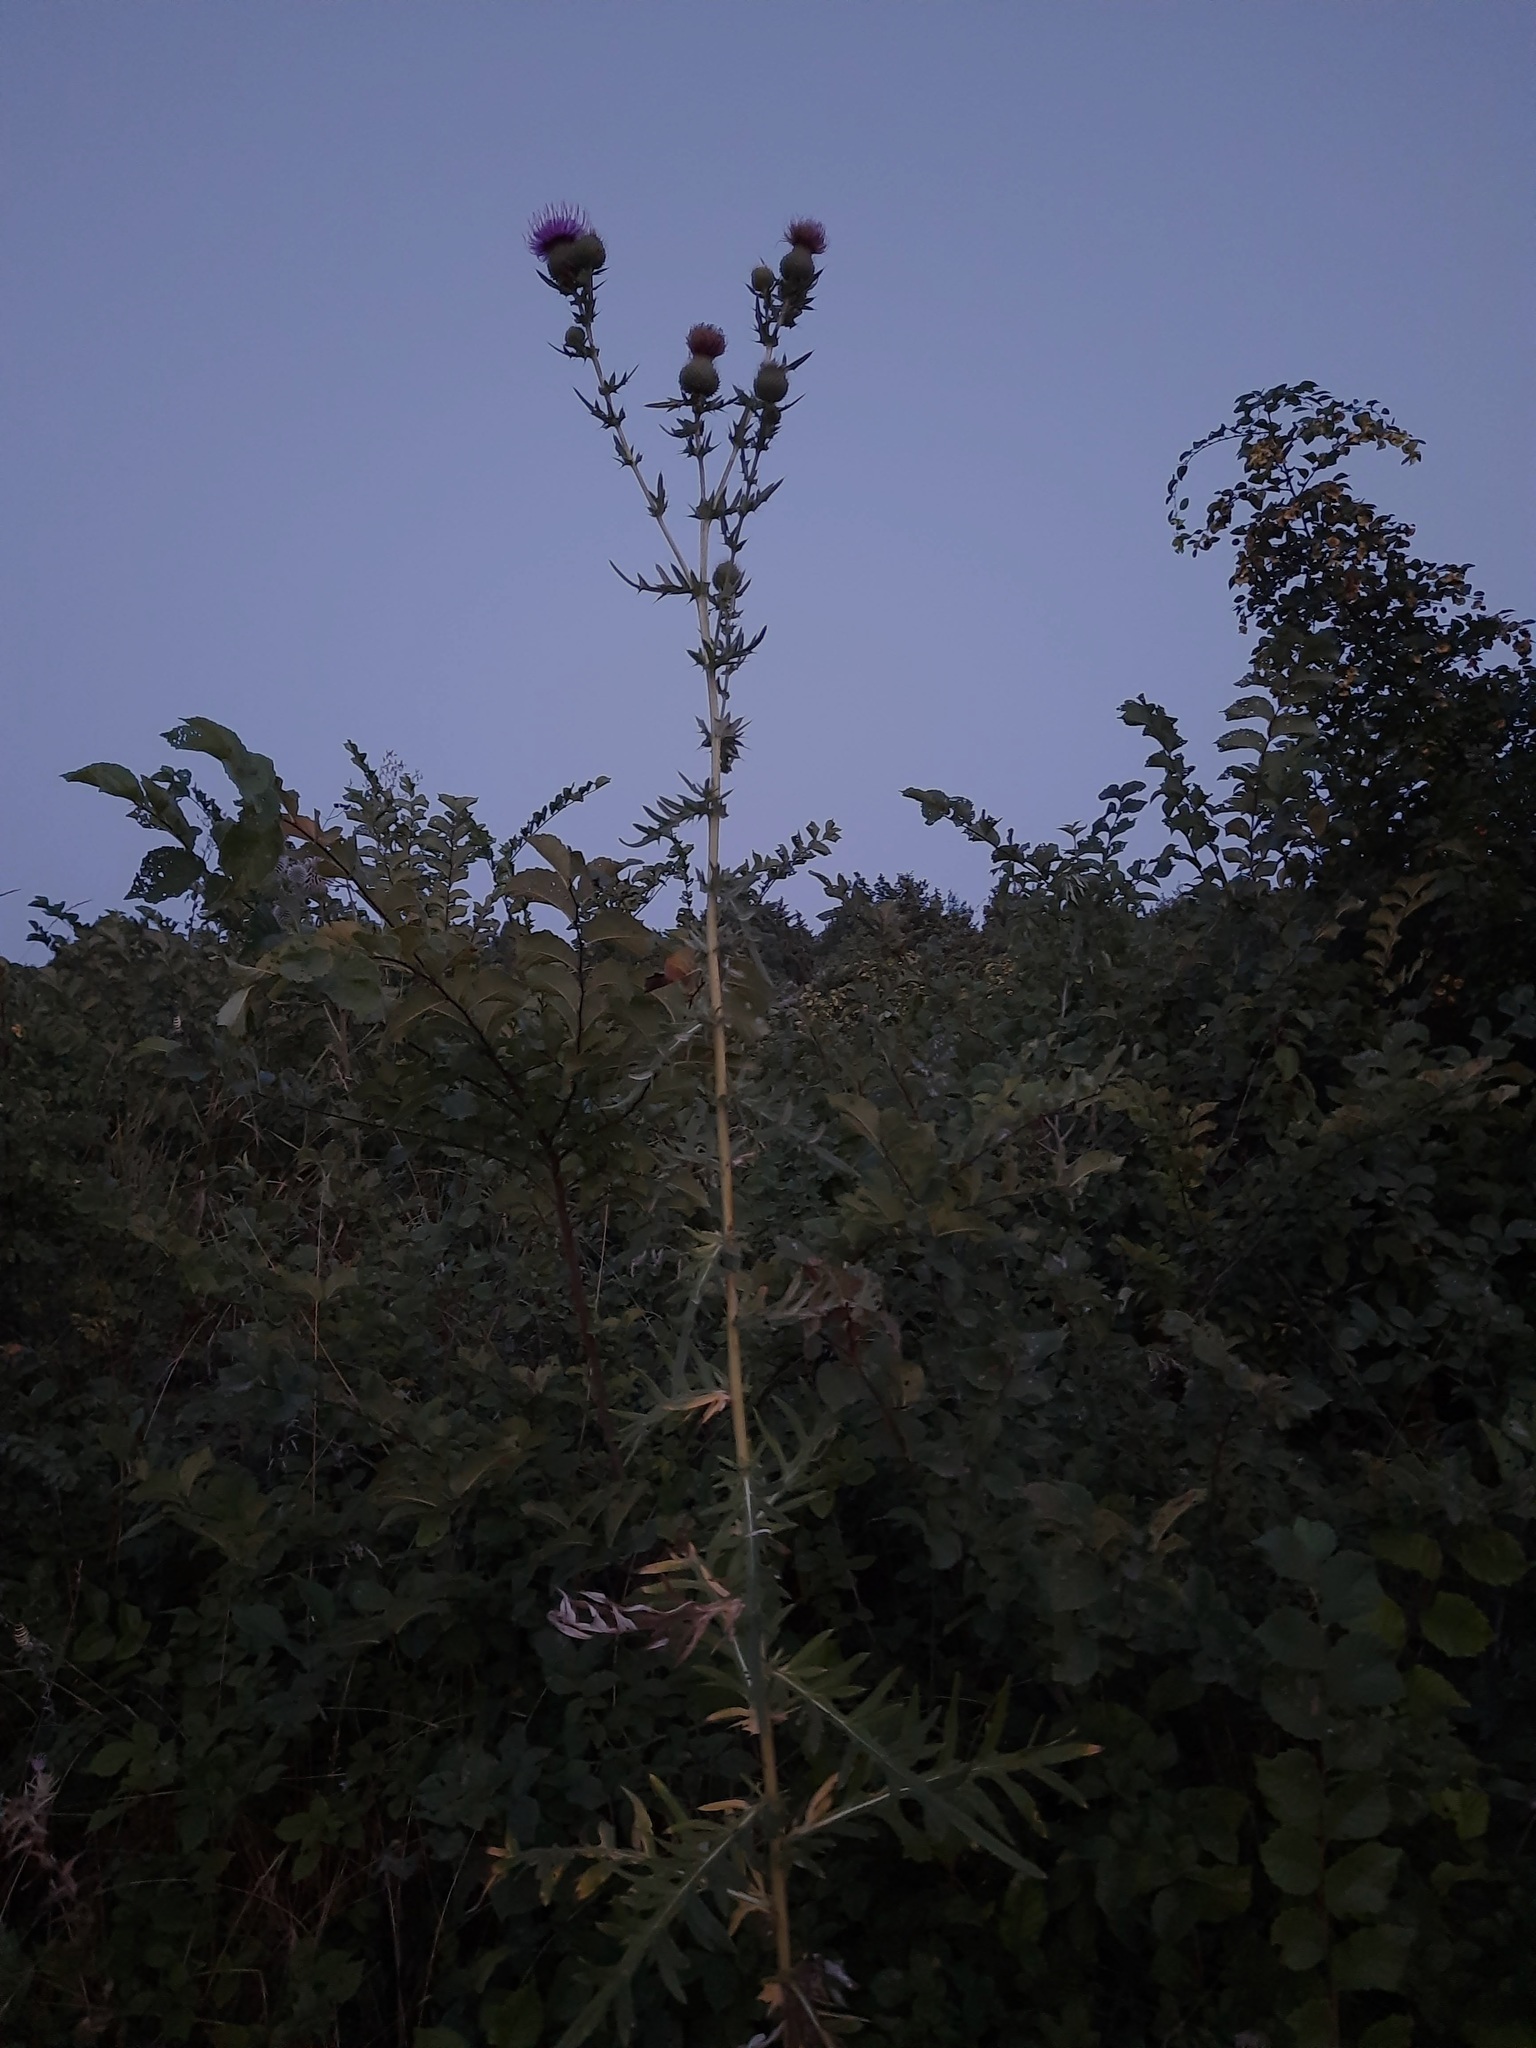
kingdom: Plantae
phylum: Tracheophyta
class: Magnoliopsida
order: Asterales
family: Asteraceae
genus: Cirsium
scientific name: Cirsium serrulatum
